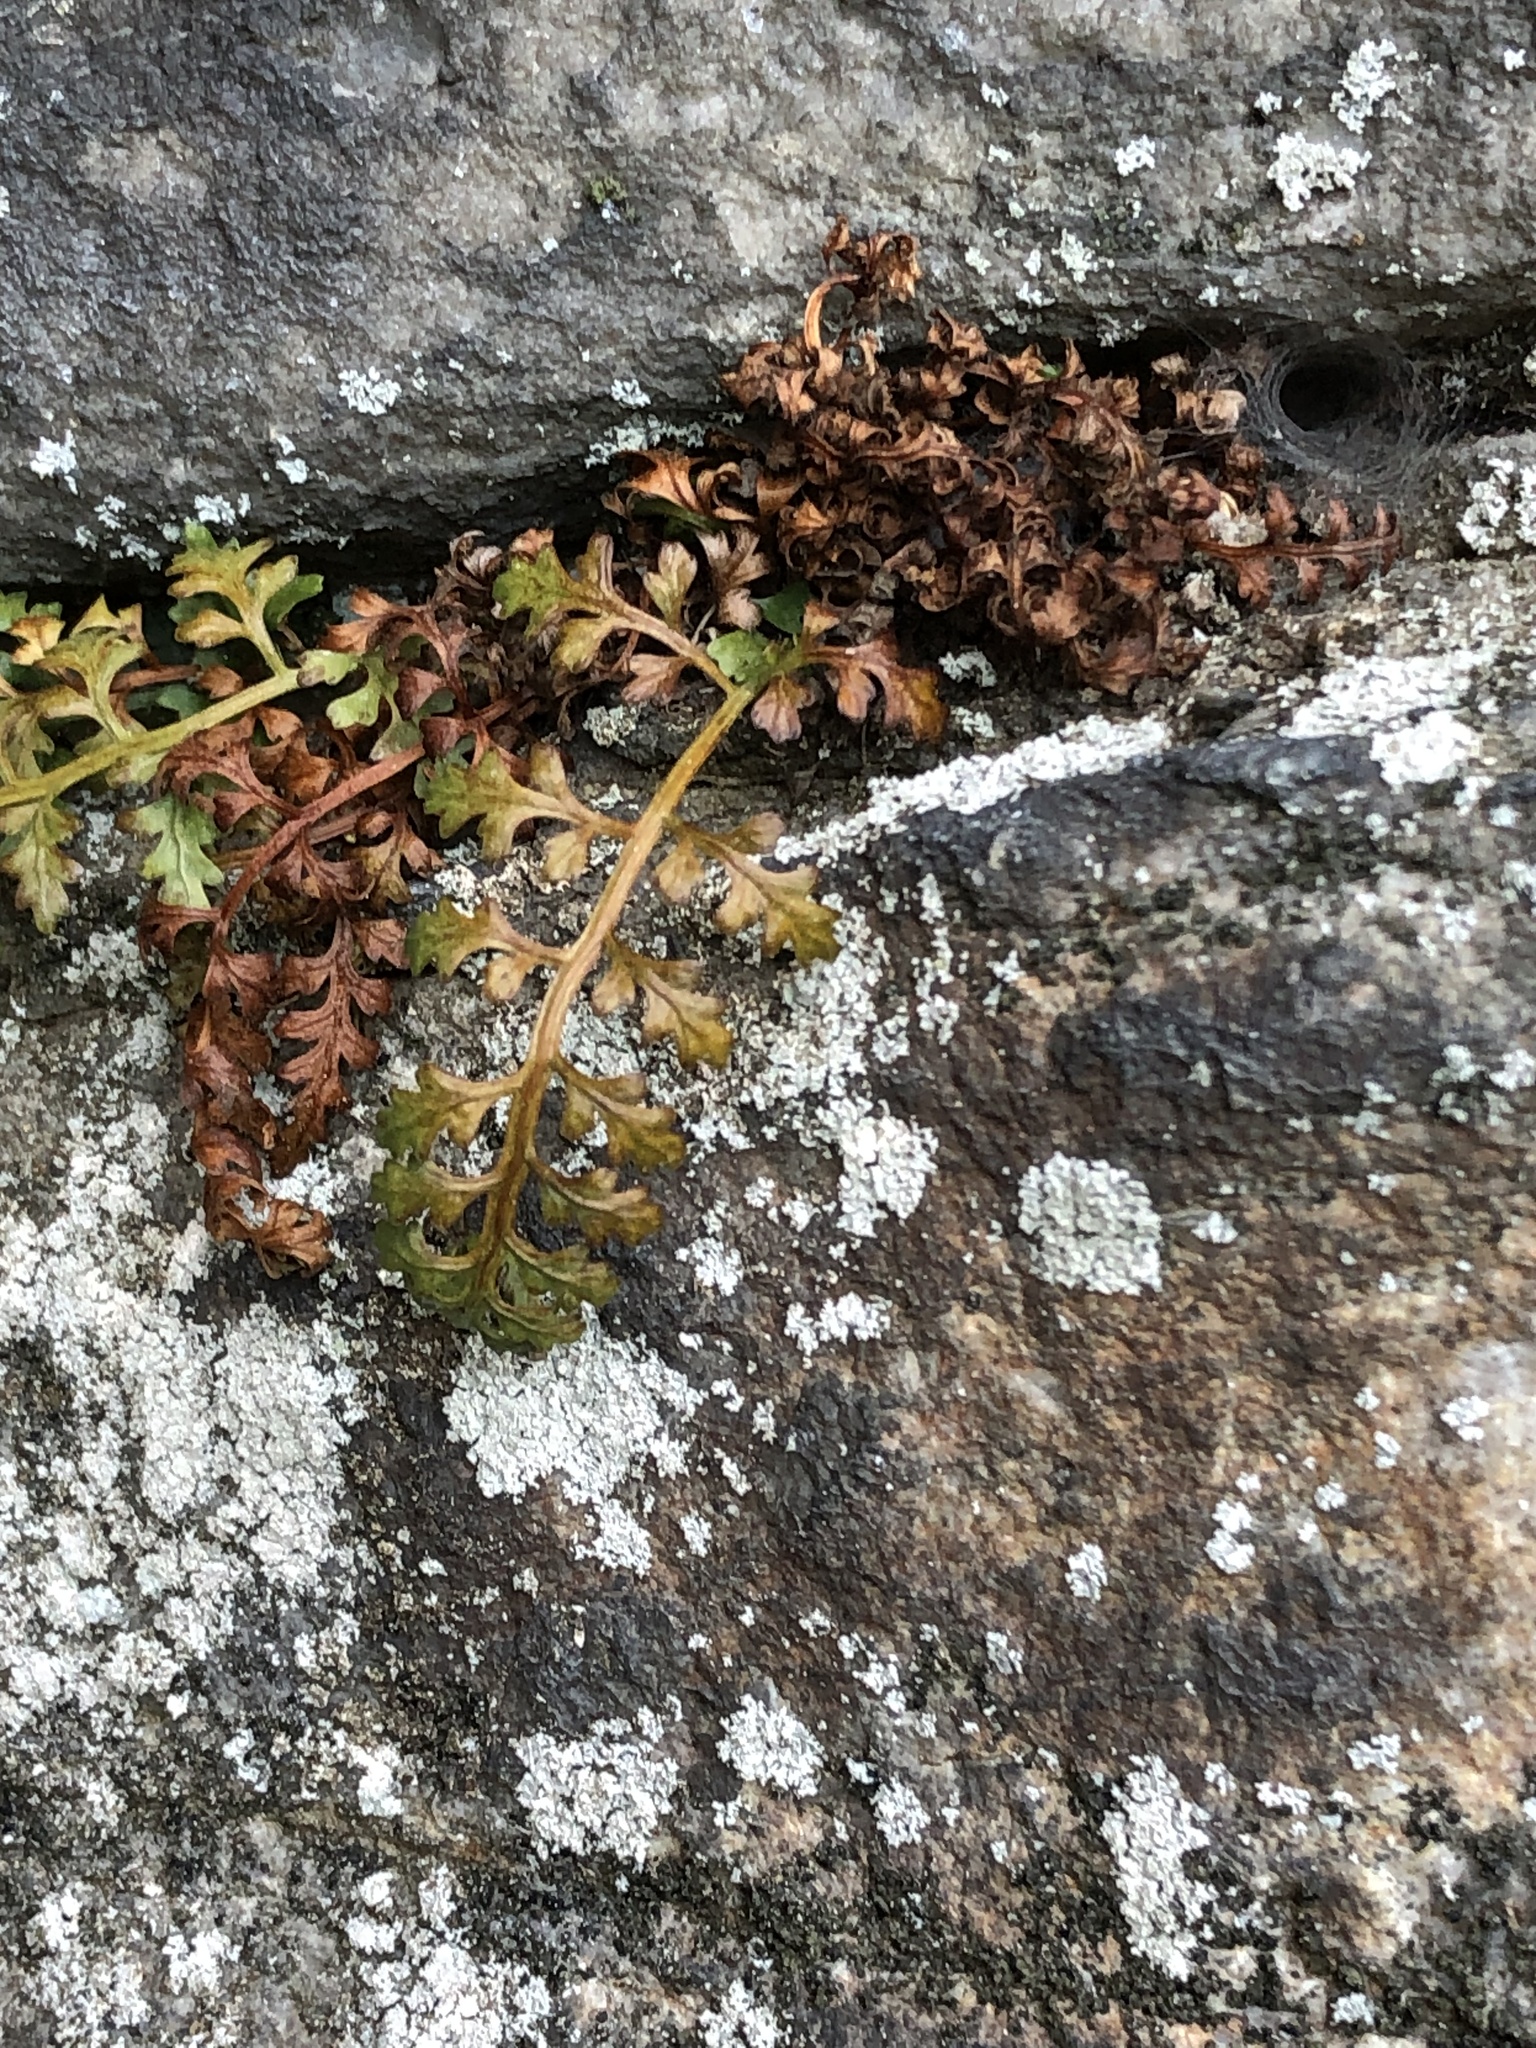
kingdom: Plantae
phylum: Tracheophyta
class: Polypodiopsida
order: Polypodiales
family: Aspleniaceae
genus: Asplenium
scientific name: Asplenium montanum
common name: Mountain spleenwort
